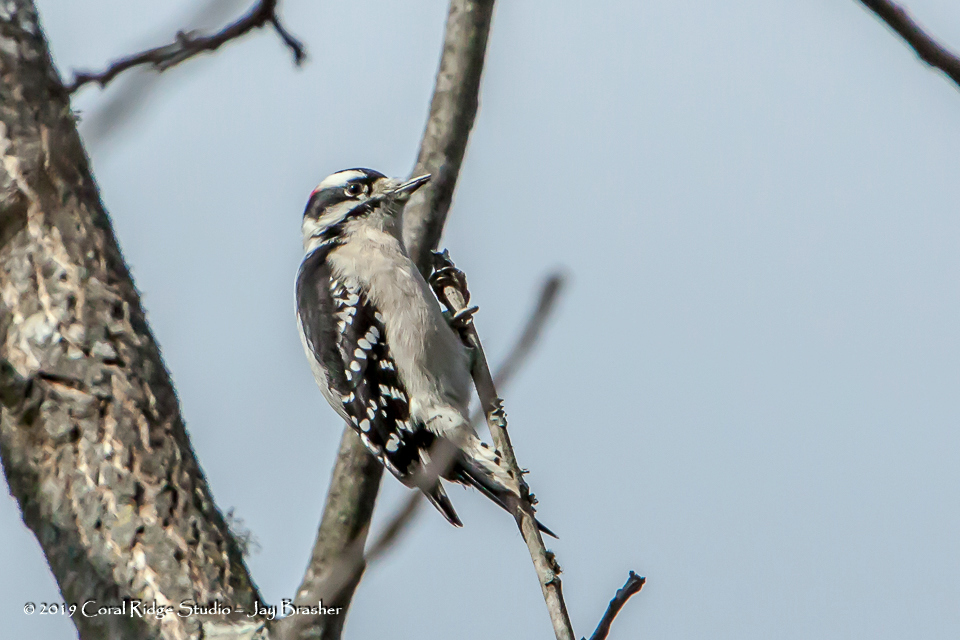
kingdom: Animalia
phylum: Chordata
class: Aves
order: Piciformes
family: Picidae
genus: Dryobates
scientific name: Dryobates pubescens
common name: Downy woodpecker
